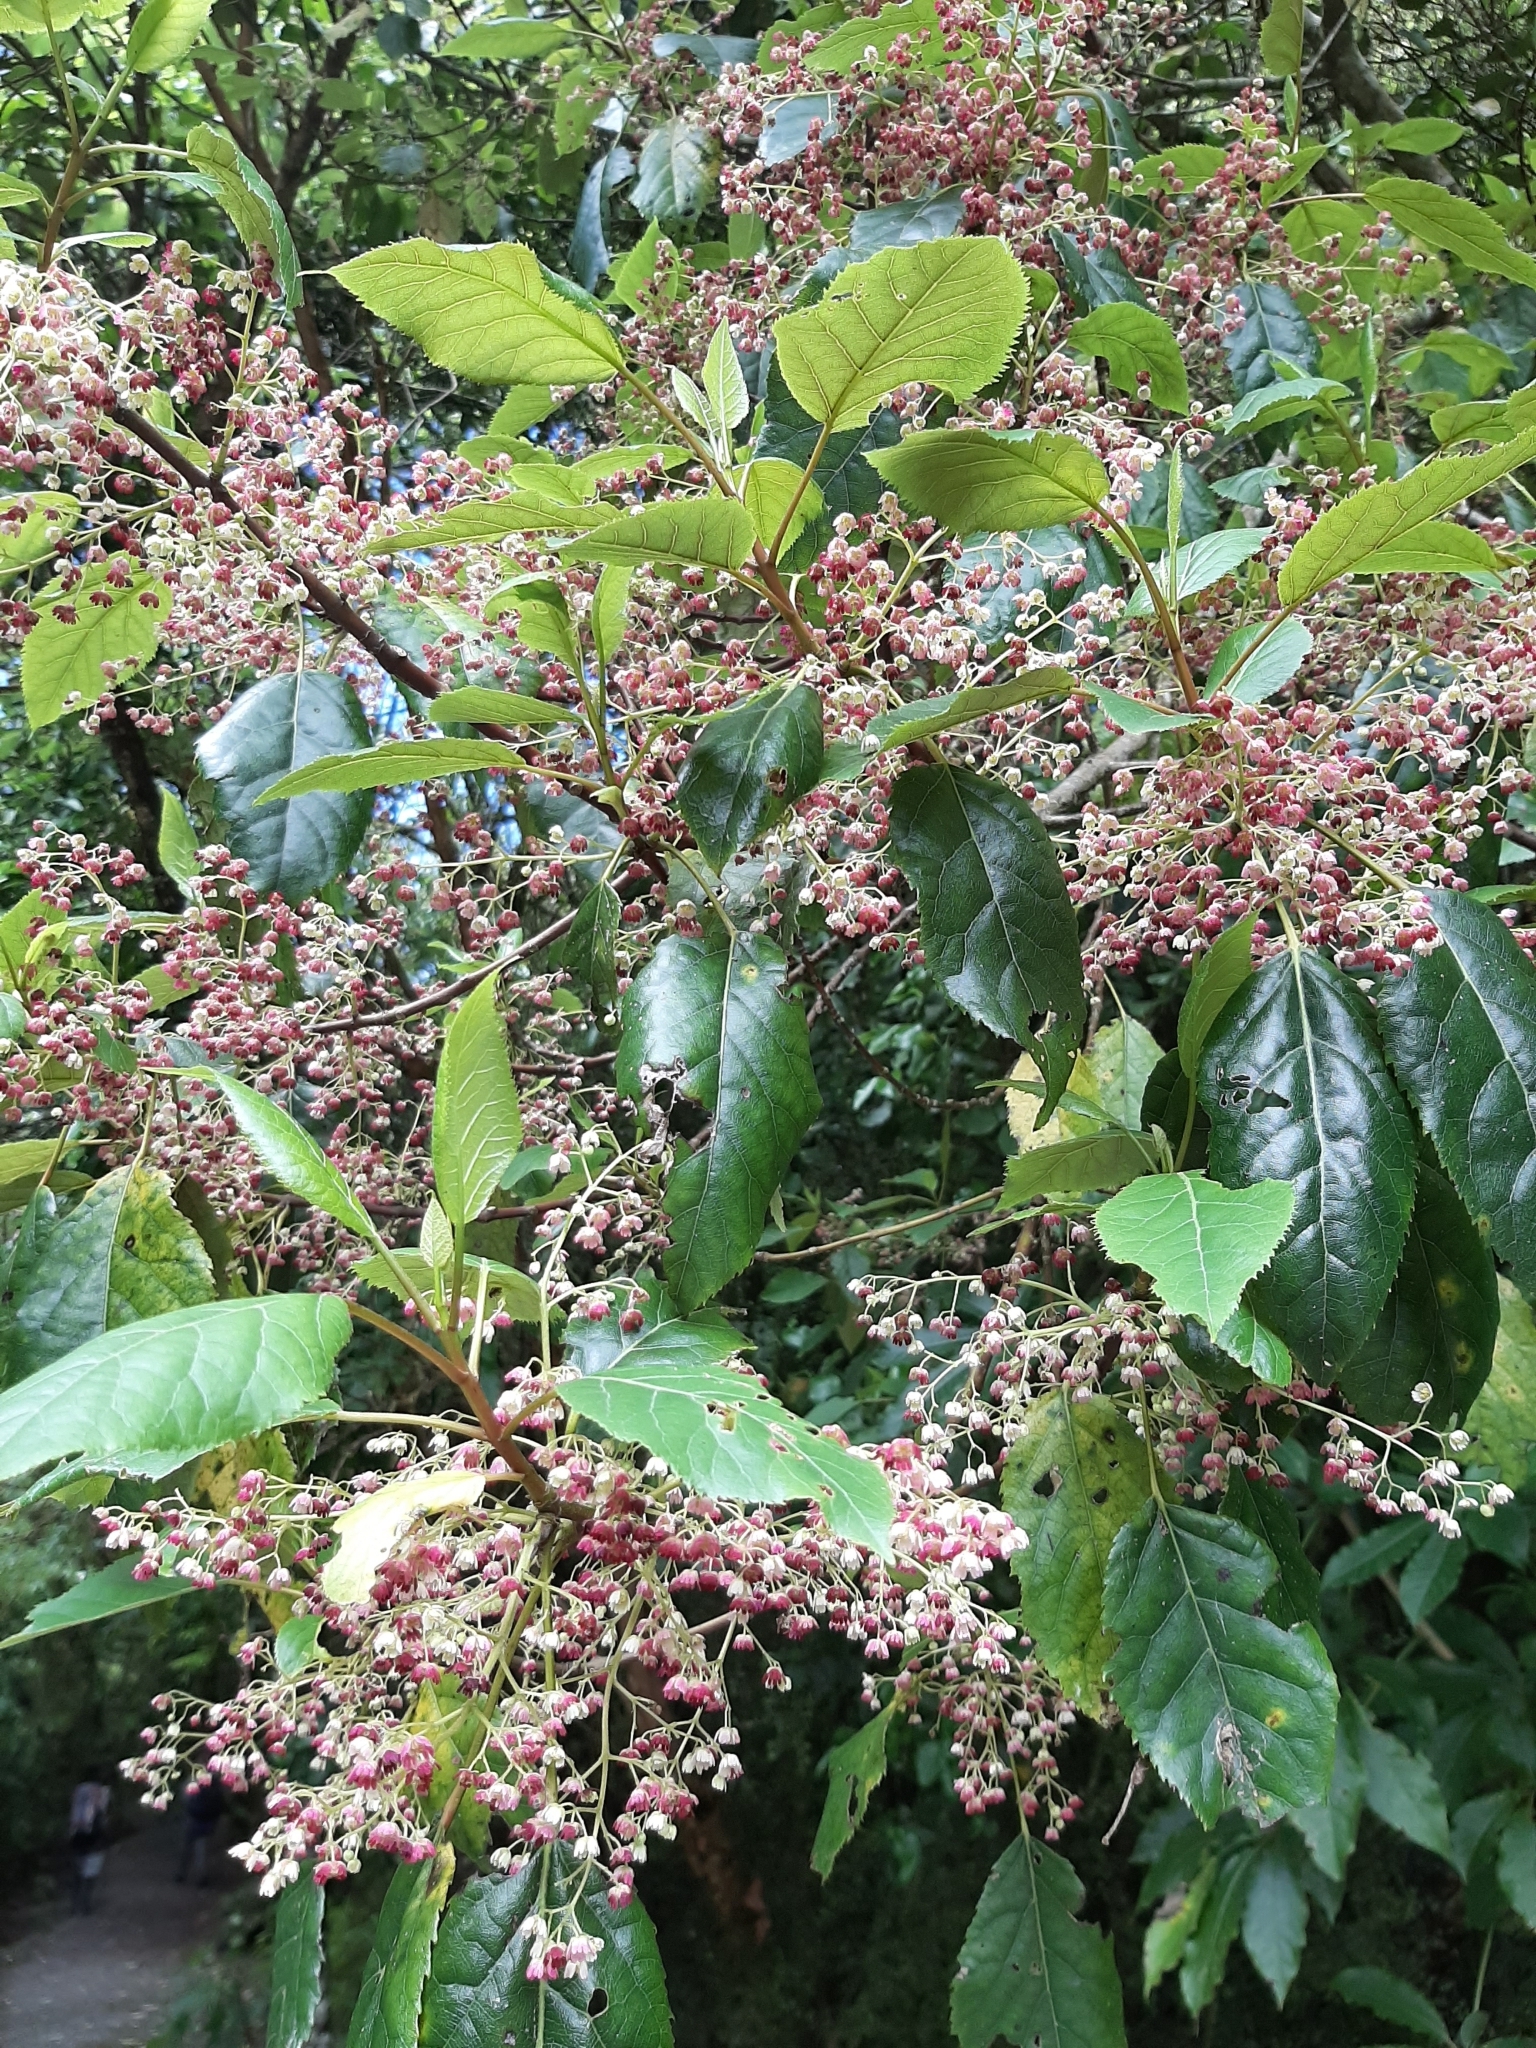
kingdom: Plantae
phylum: Tracheophyta
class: Magnoliopsida
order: Oxalidales
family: Elaeocarpaceae
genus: Aristotelia
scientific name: Aristotelia serrata
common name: New zealand wineberry
